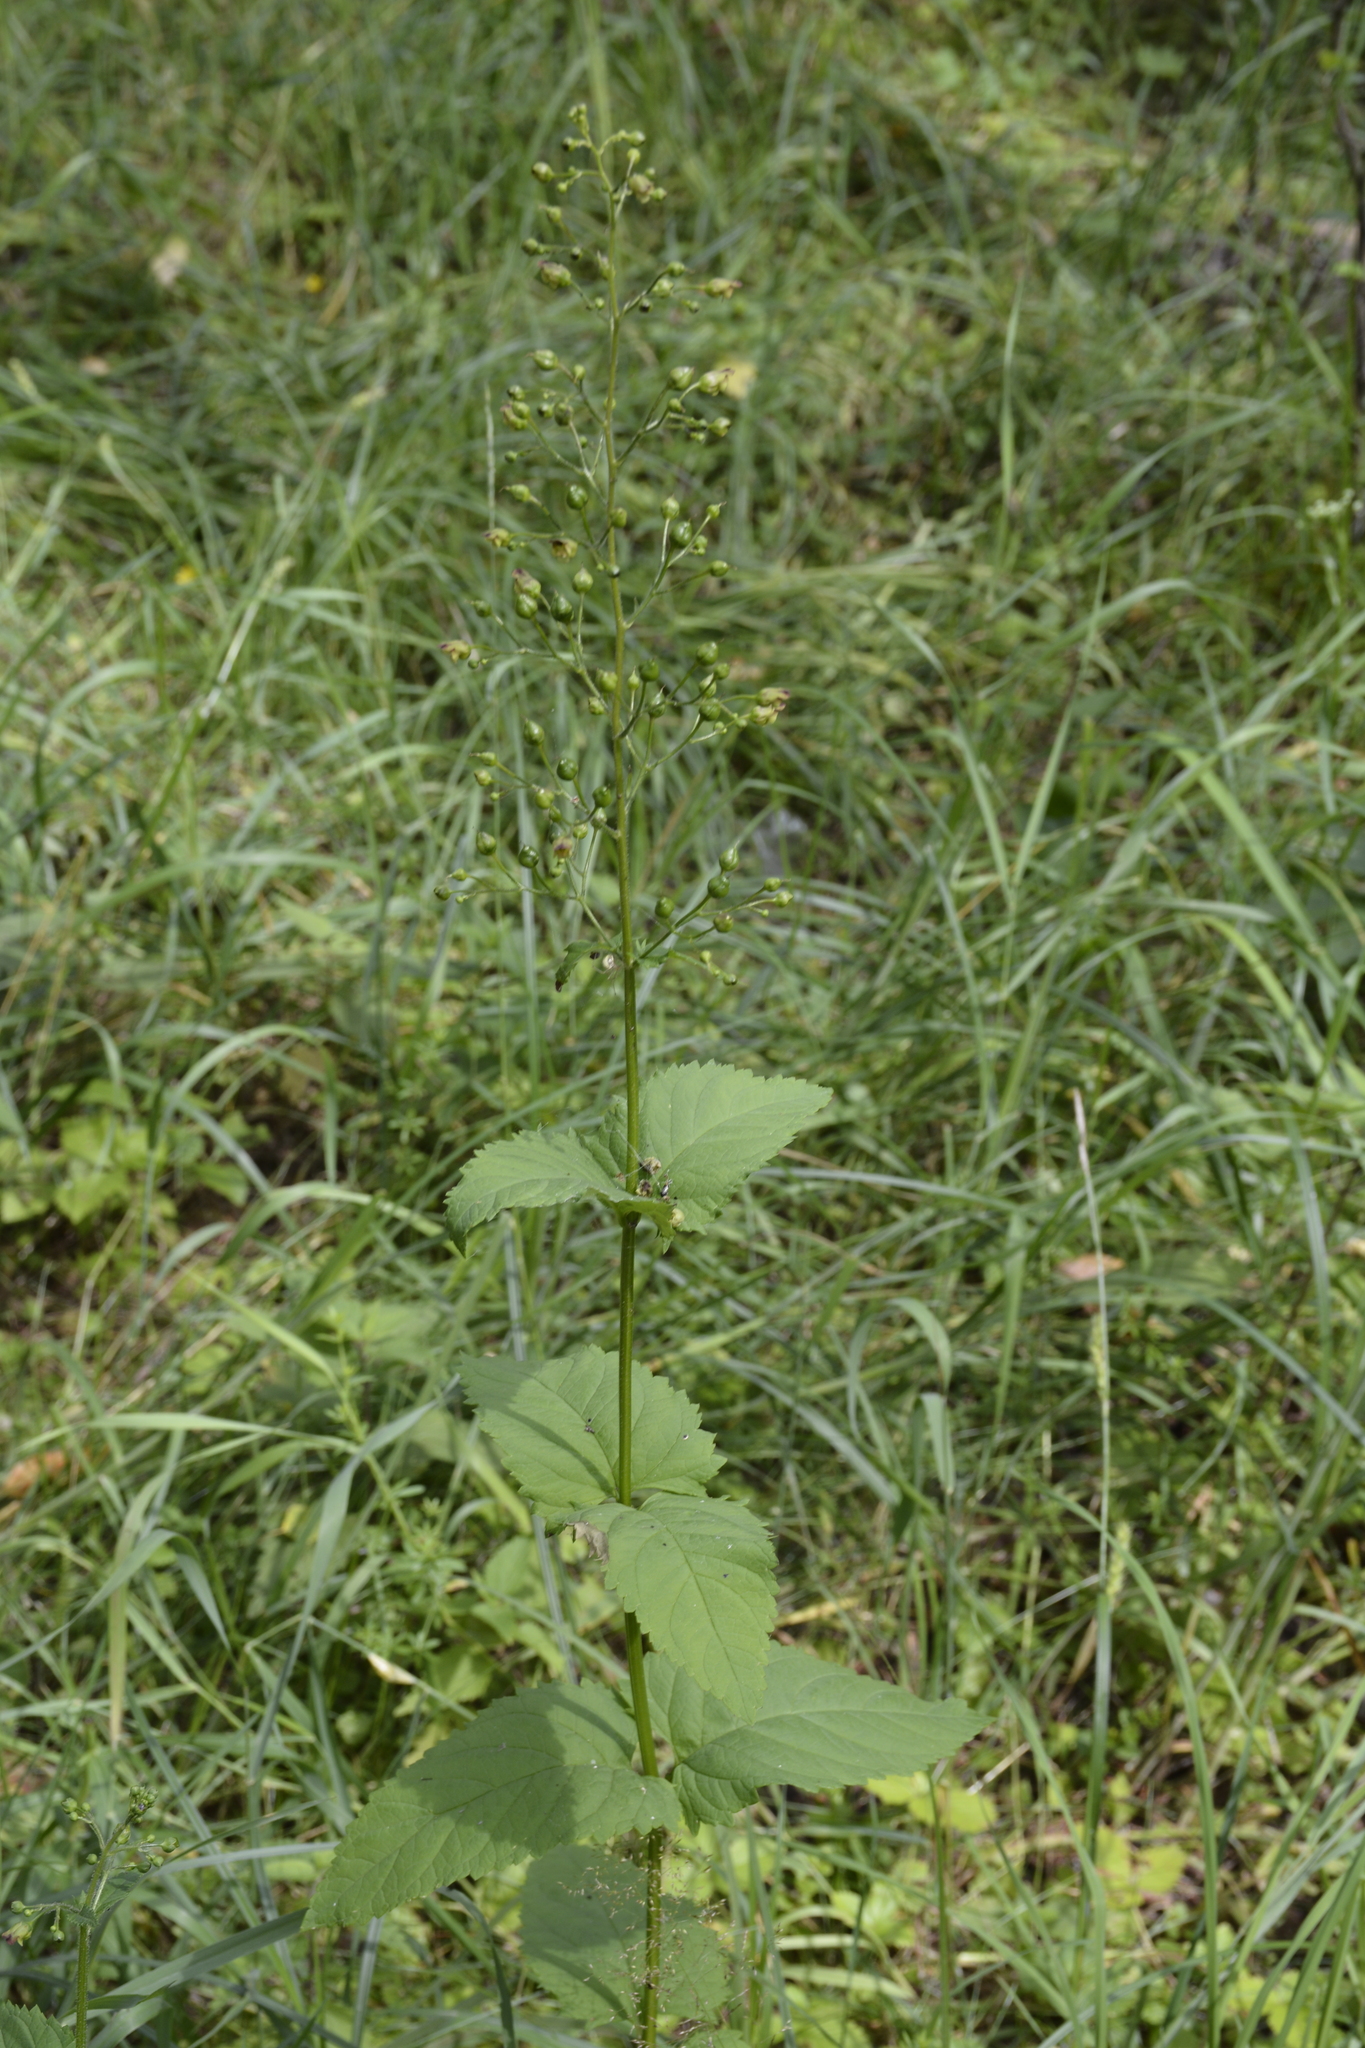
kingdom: Plantae
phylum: Tracheophyta
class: Magnoliopsida
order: Lamiales
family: Scrophulariaceae
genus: Scrophularia
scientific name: Scrophularia nodosa
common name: Common figwort
